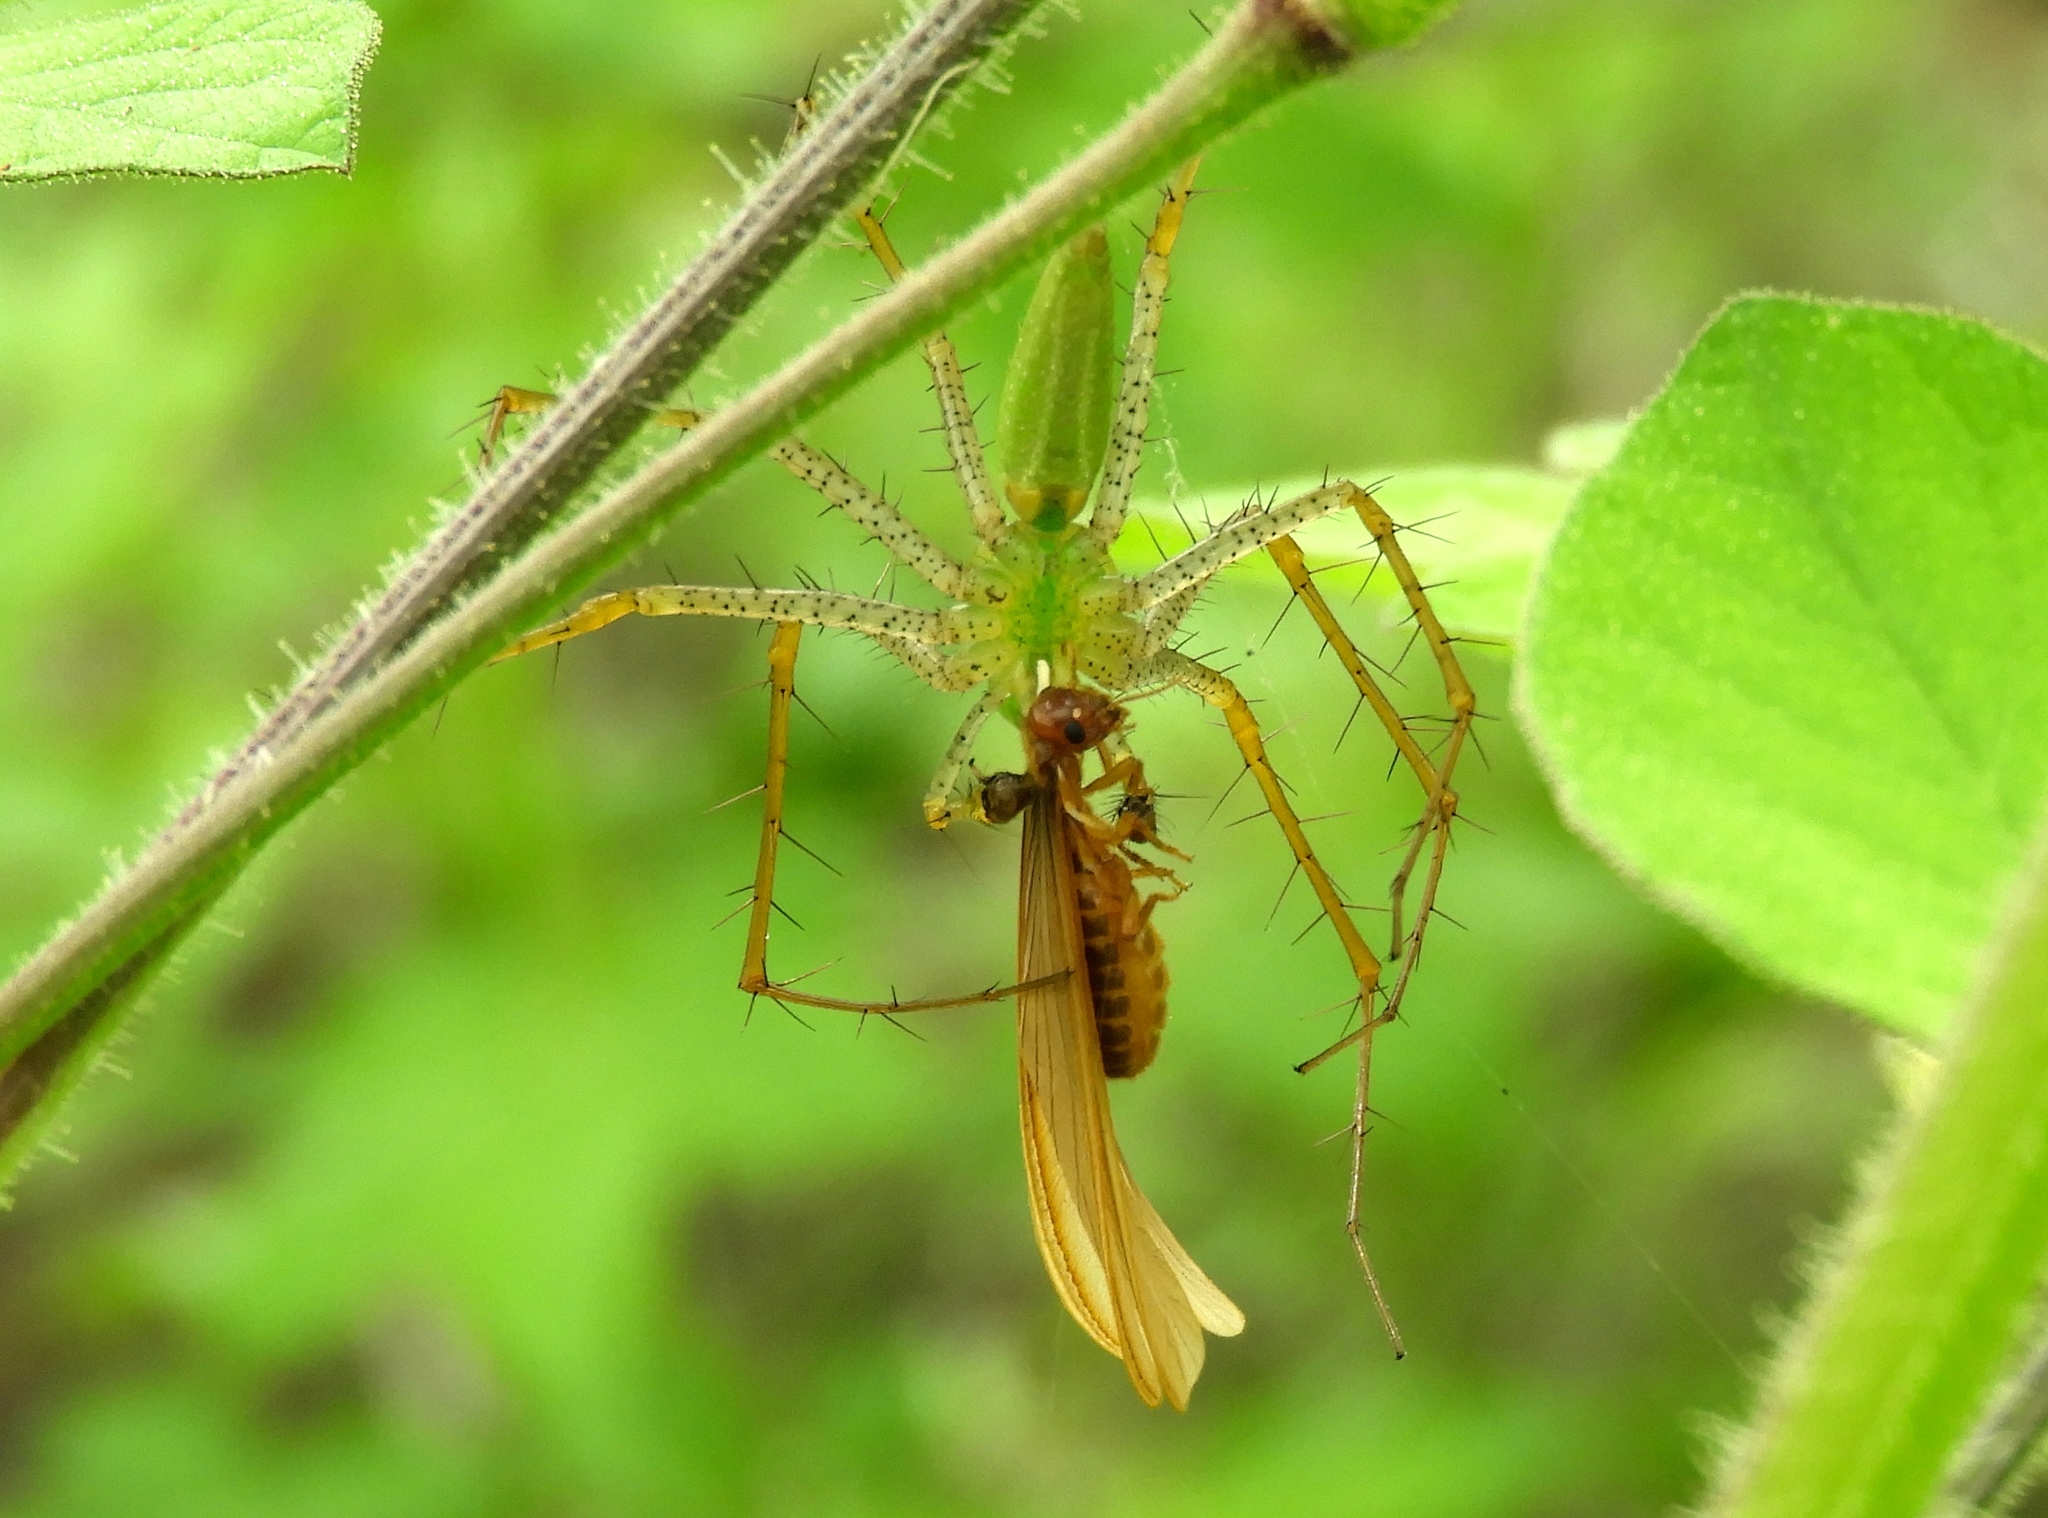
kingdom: Animalia
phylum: Arthropoda
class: Arachnida
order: Araneae
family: Oxyopidae
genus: Peucetia
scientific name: Peucetia
